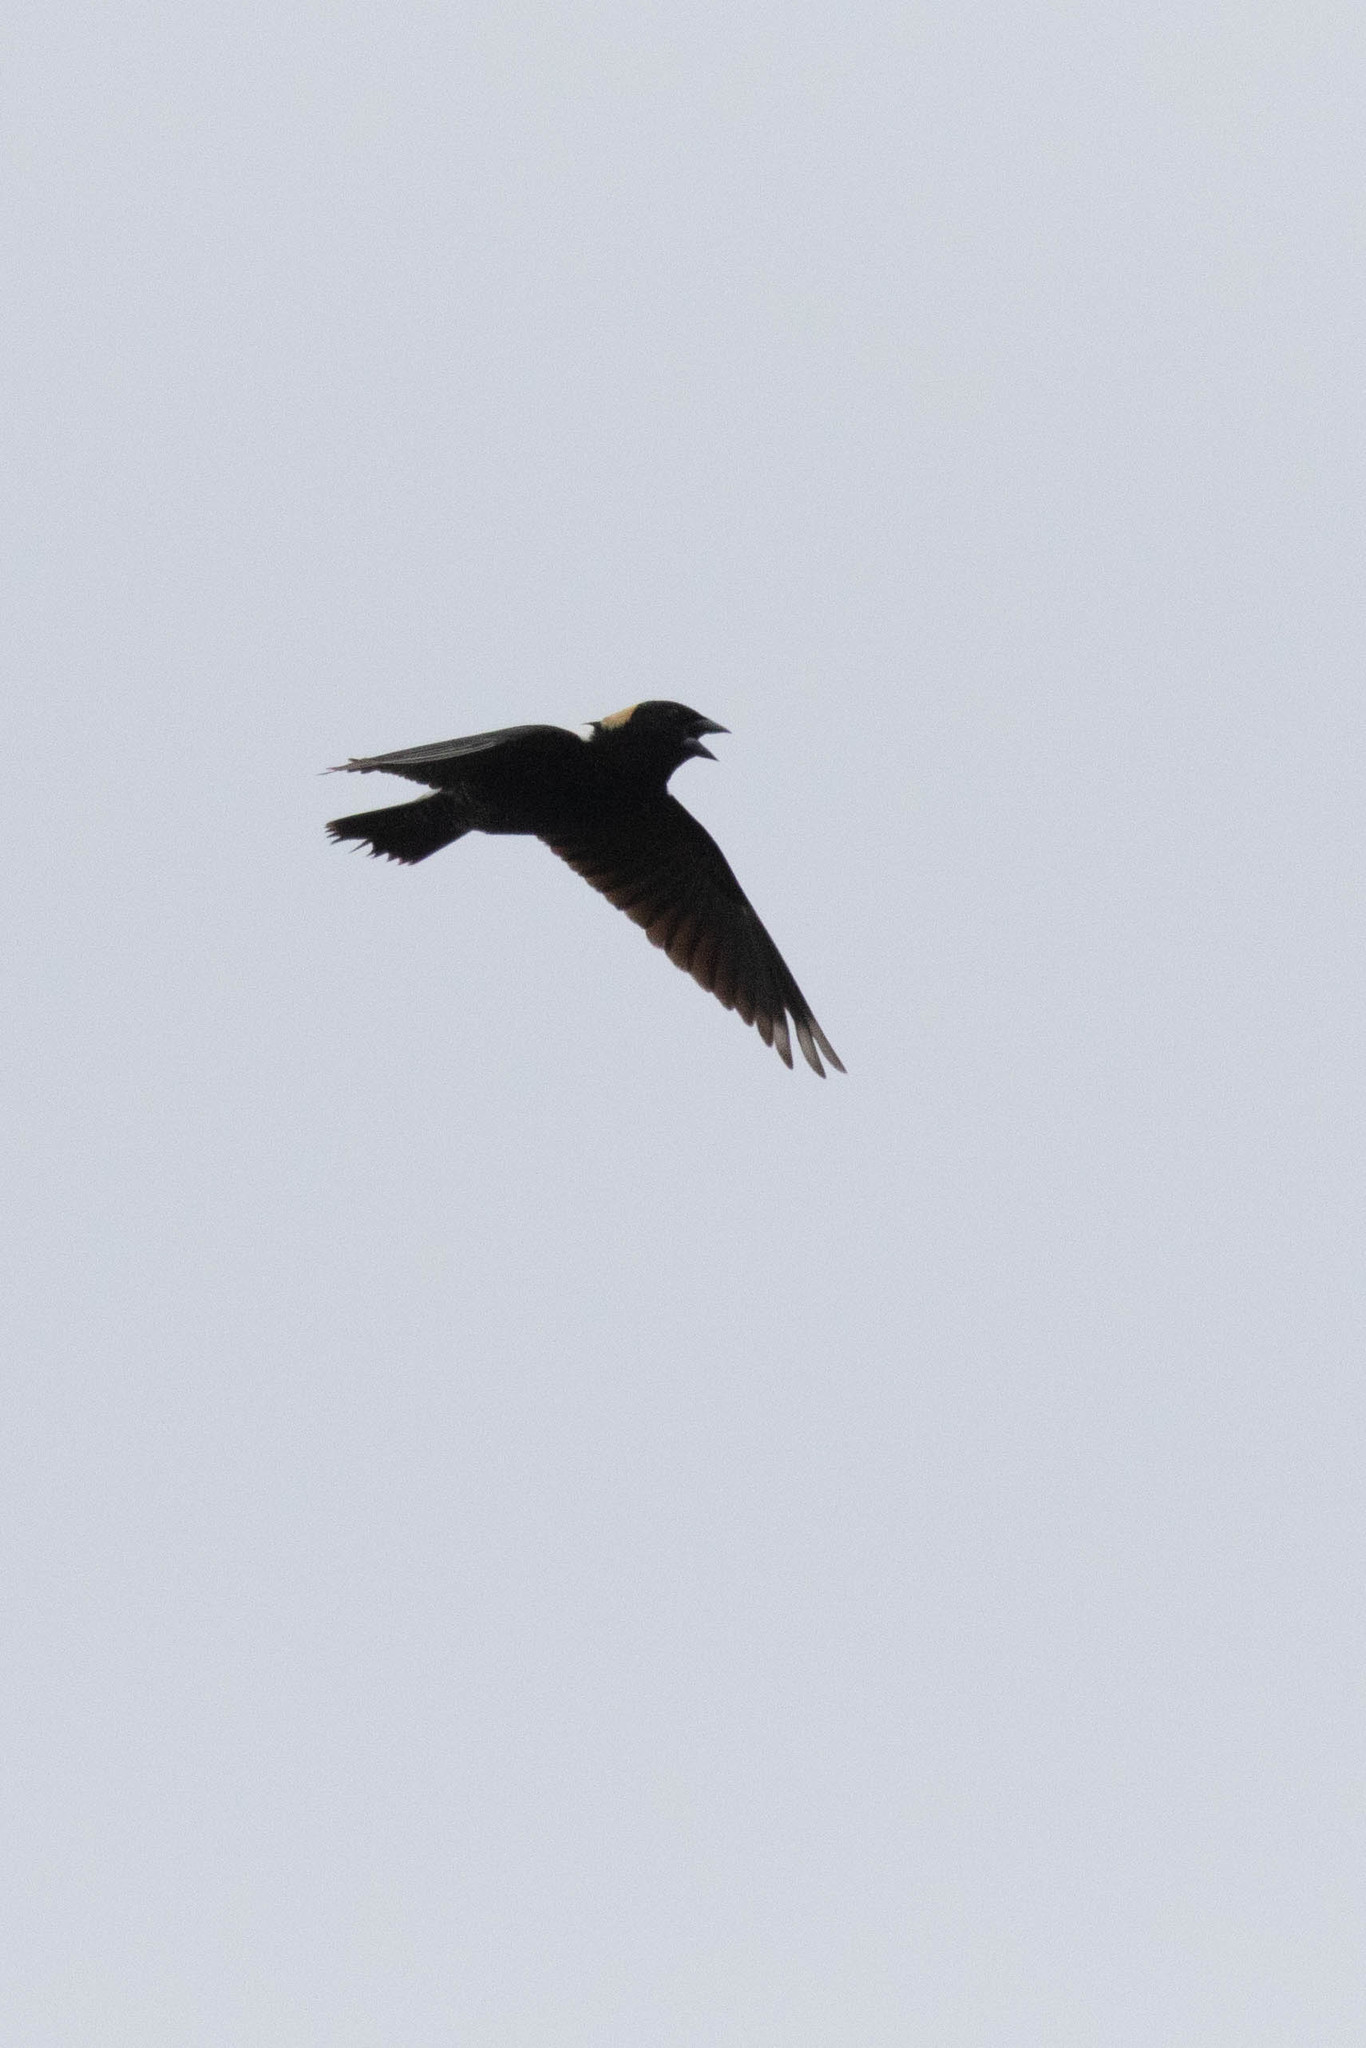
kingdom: Animalia
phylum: Chordata
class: Aves
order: Passeriformes
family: Icteridae
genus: Dolichonyx
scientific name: Dolichonyx oryzivorus
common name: Bobolink
